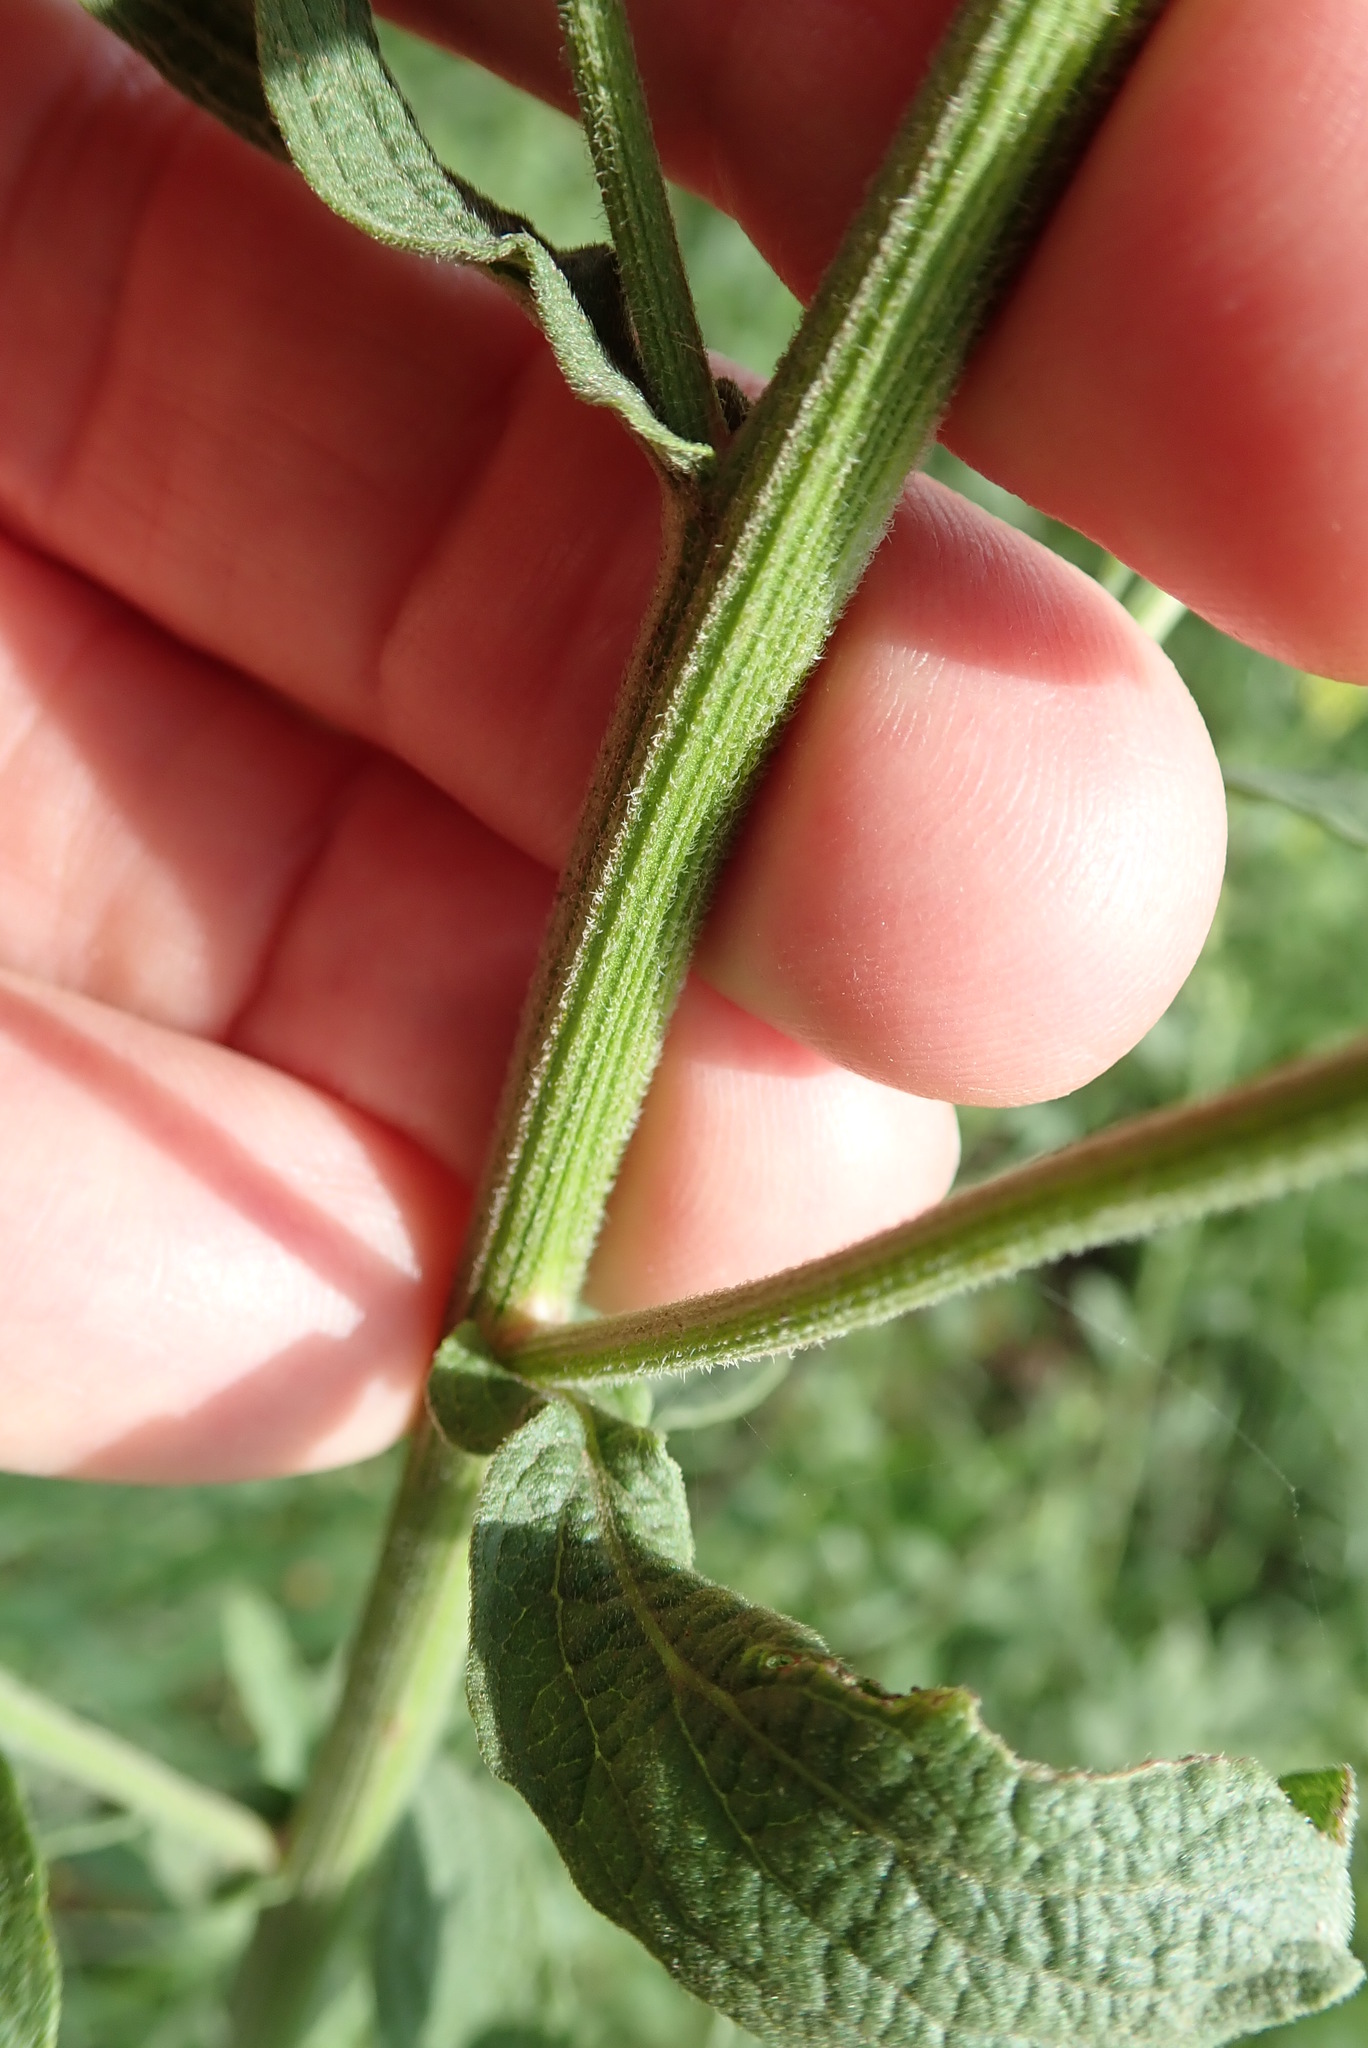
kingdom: Plantae
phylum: Tracheophyta
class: Magnoliopsida
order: Asterales
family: Asteraceae
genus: Nidorella
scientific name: Nidorella auriculata
